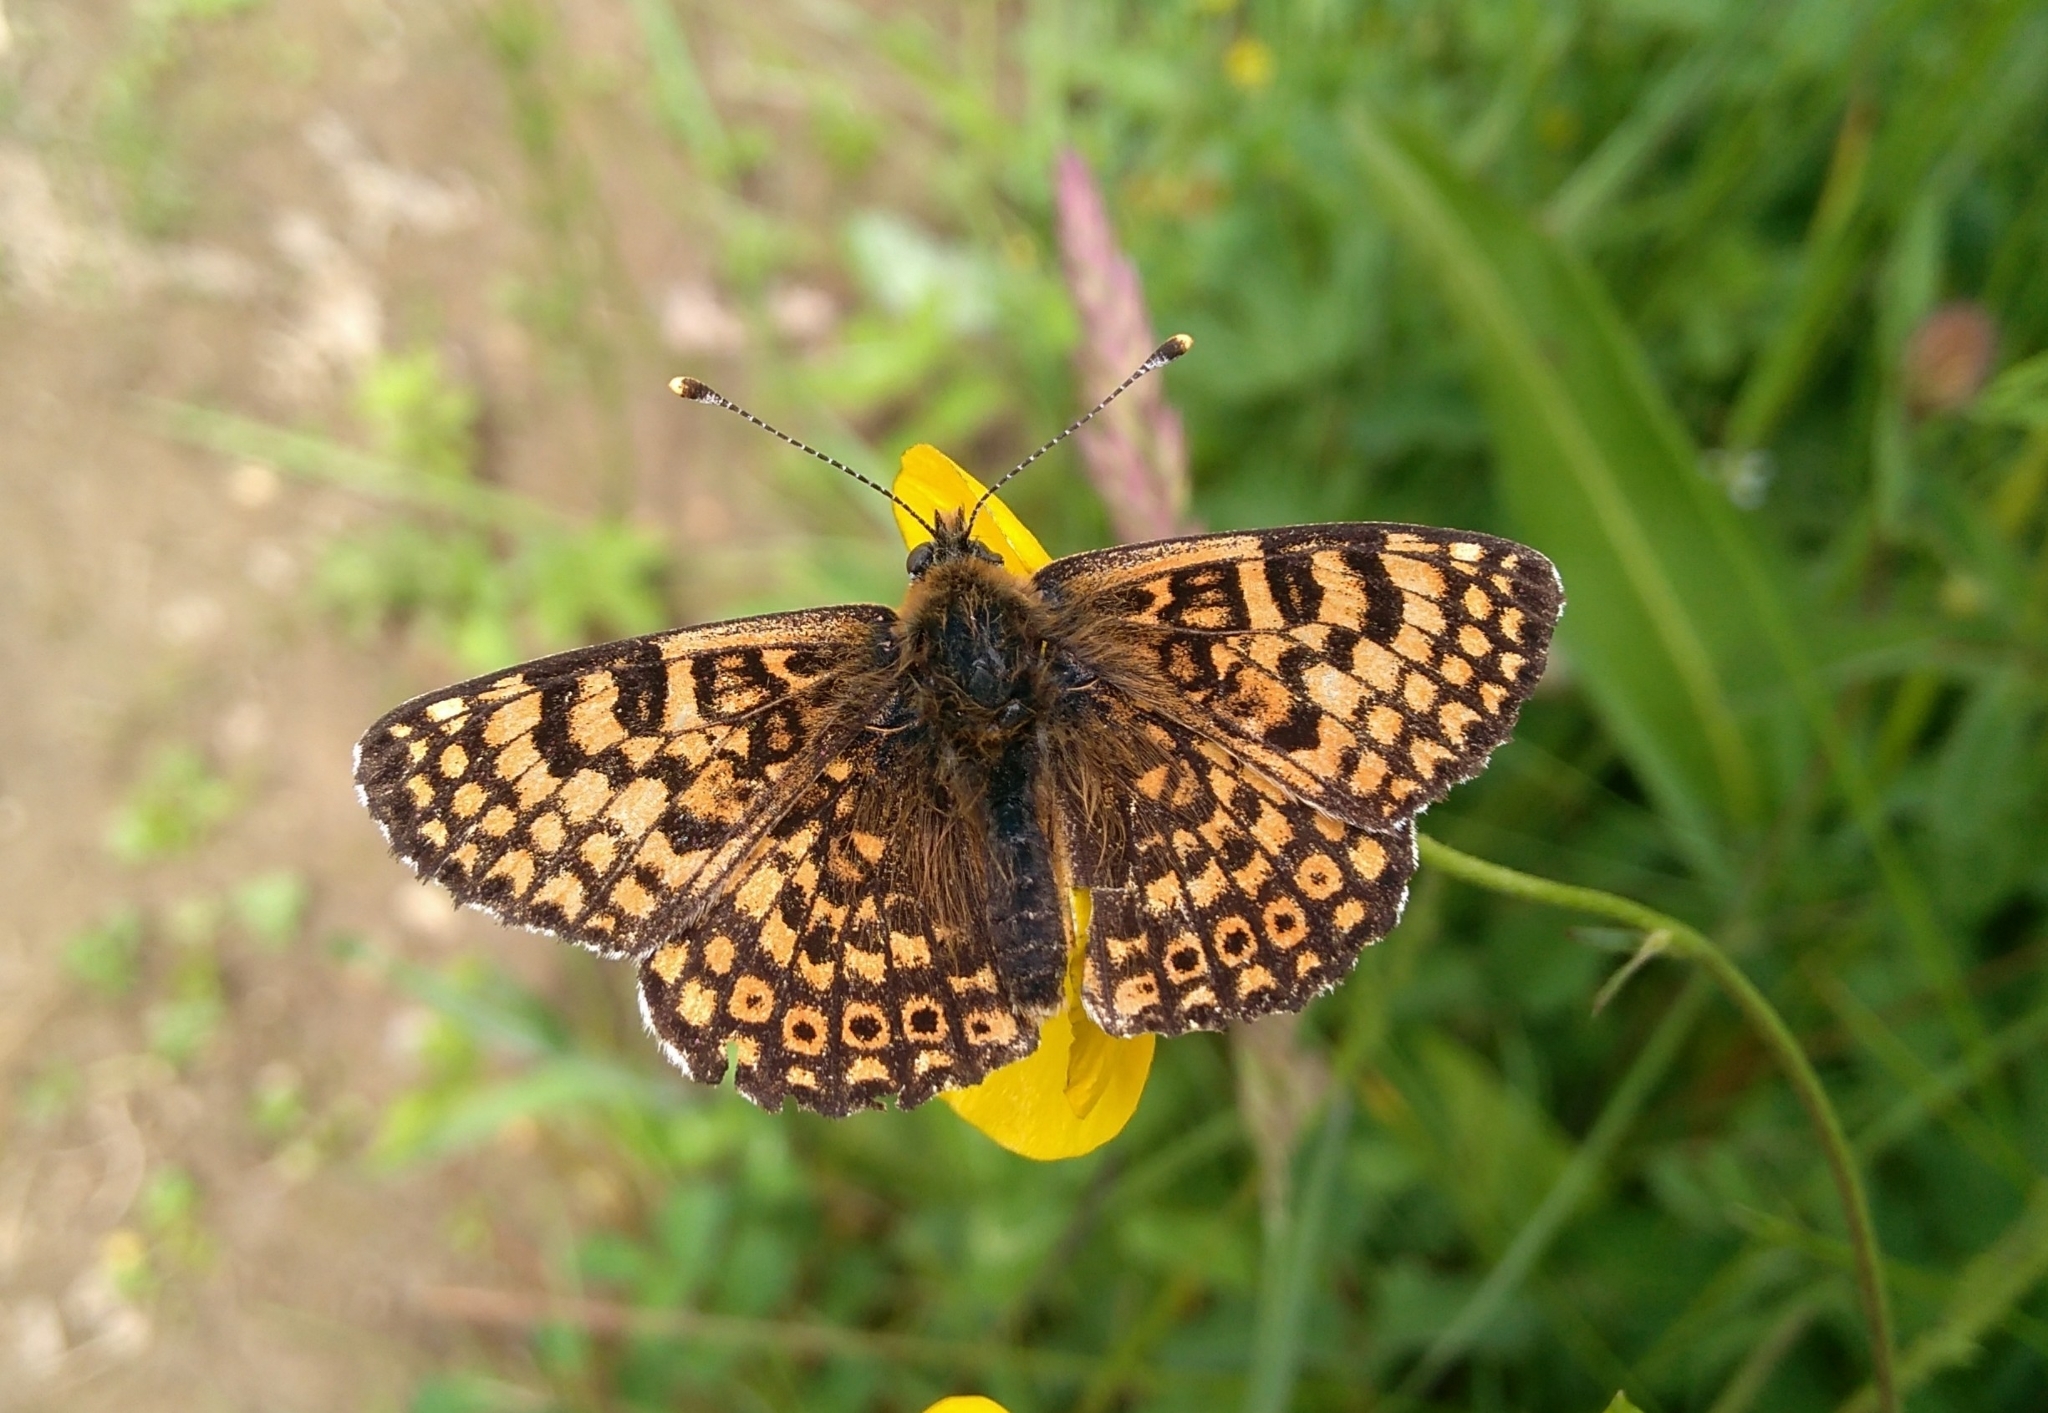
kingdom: Animalia
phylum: Arthropoda
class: Insecta
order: Lepidoptera
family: Nymphalidae
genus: Melitaea
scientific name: Melitaea cinxia
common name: Glanville fritillary
